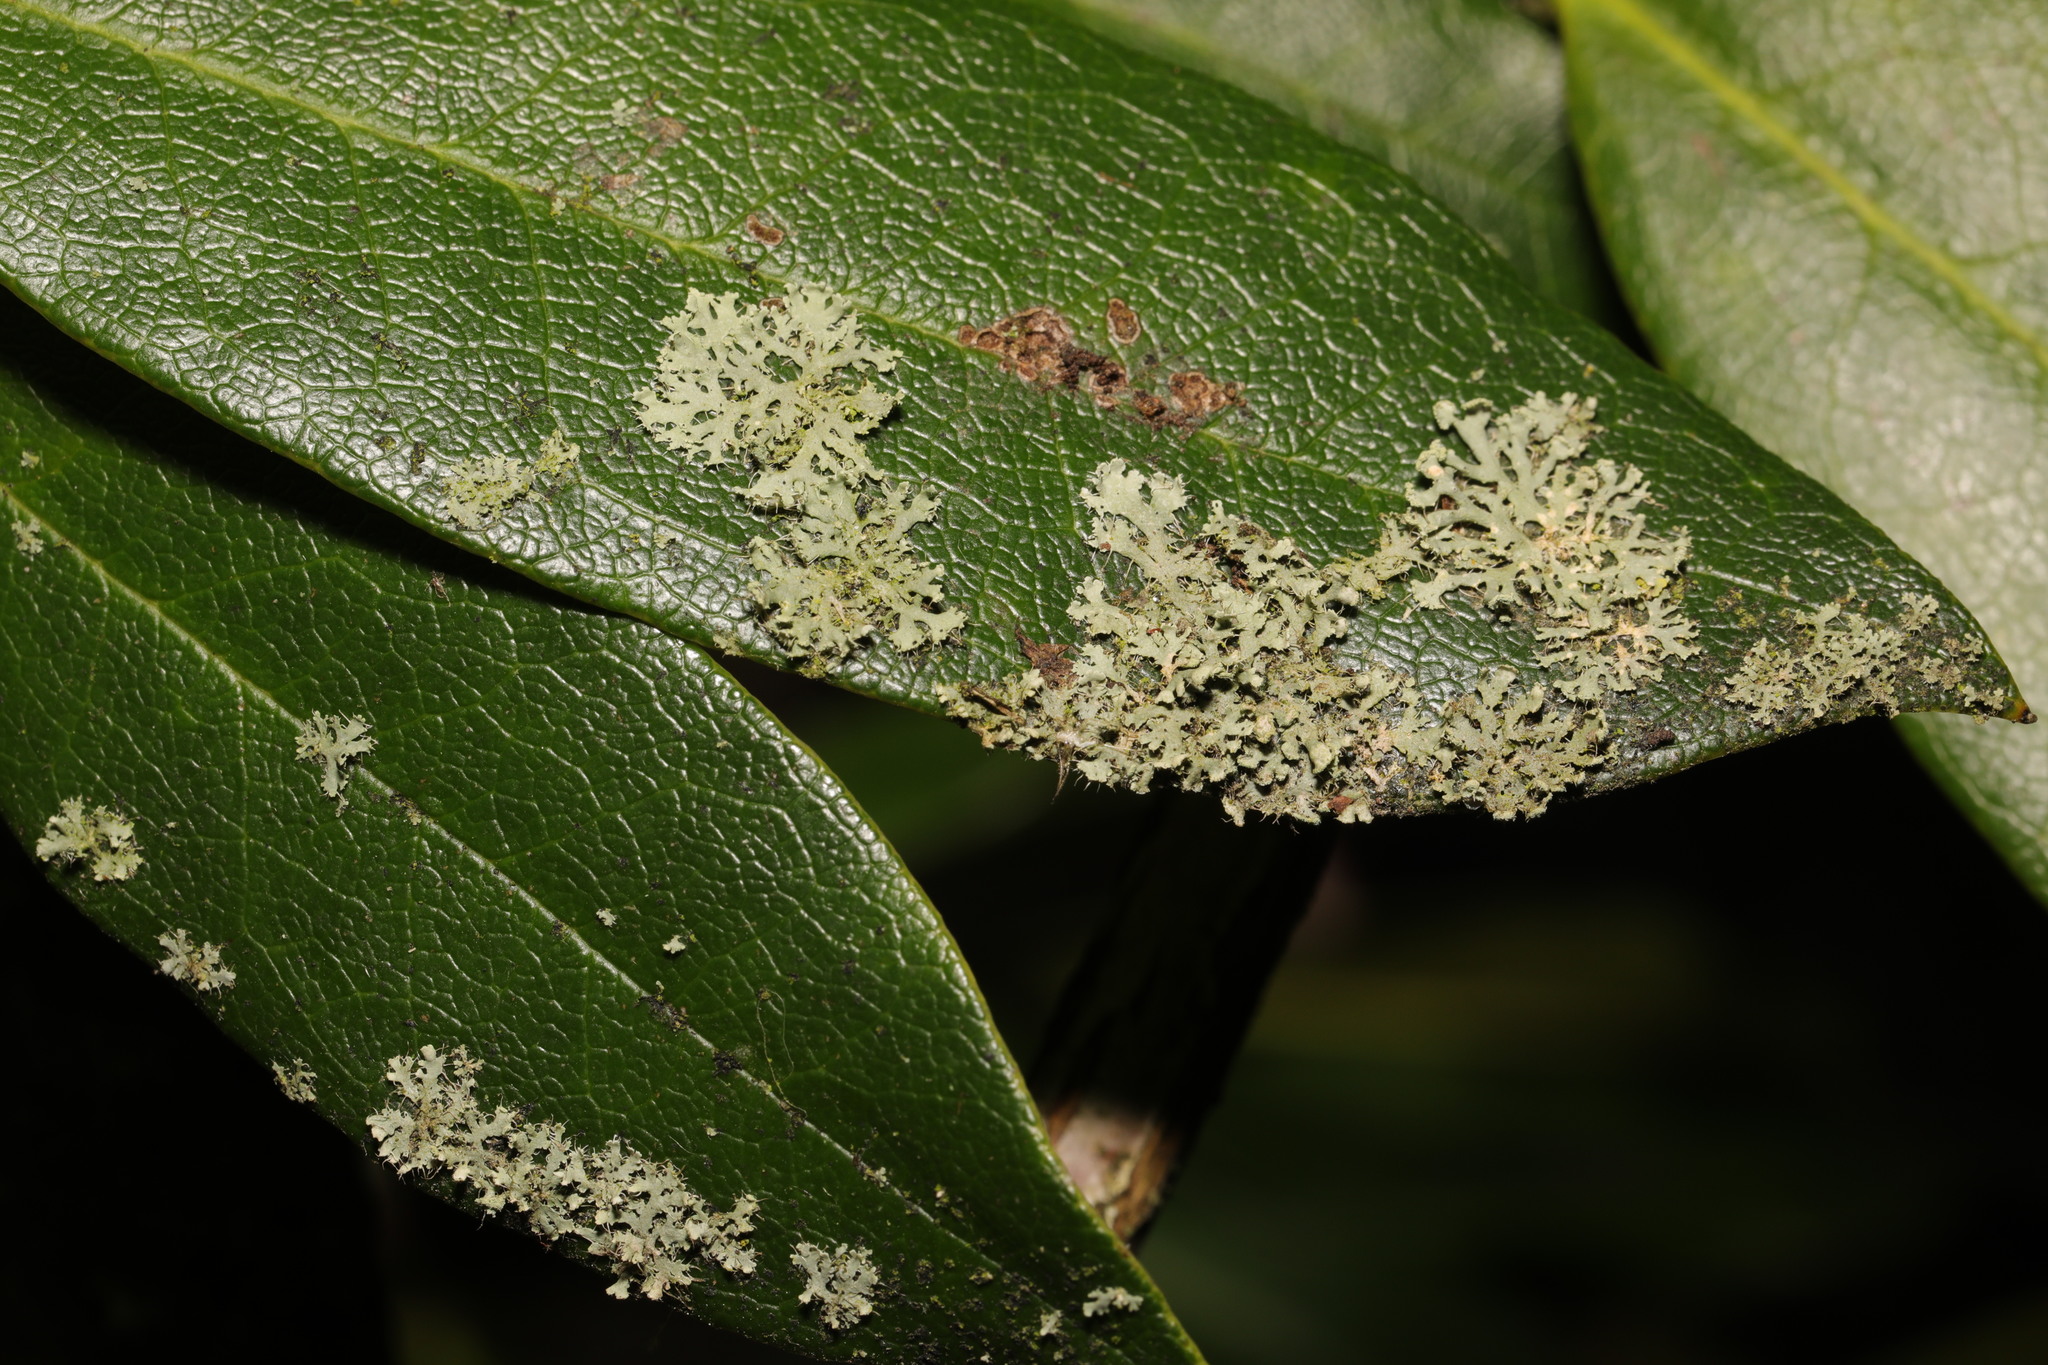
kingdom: Fungi
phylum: Ascomycota
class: Lecanoromycetes
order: Caliciales
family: Physciaceae
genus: Physcia
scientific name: Physcia adscendens
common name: Hooded rosette lichen
